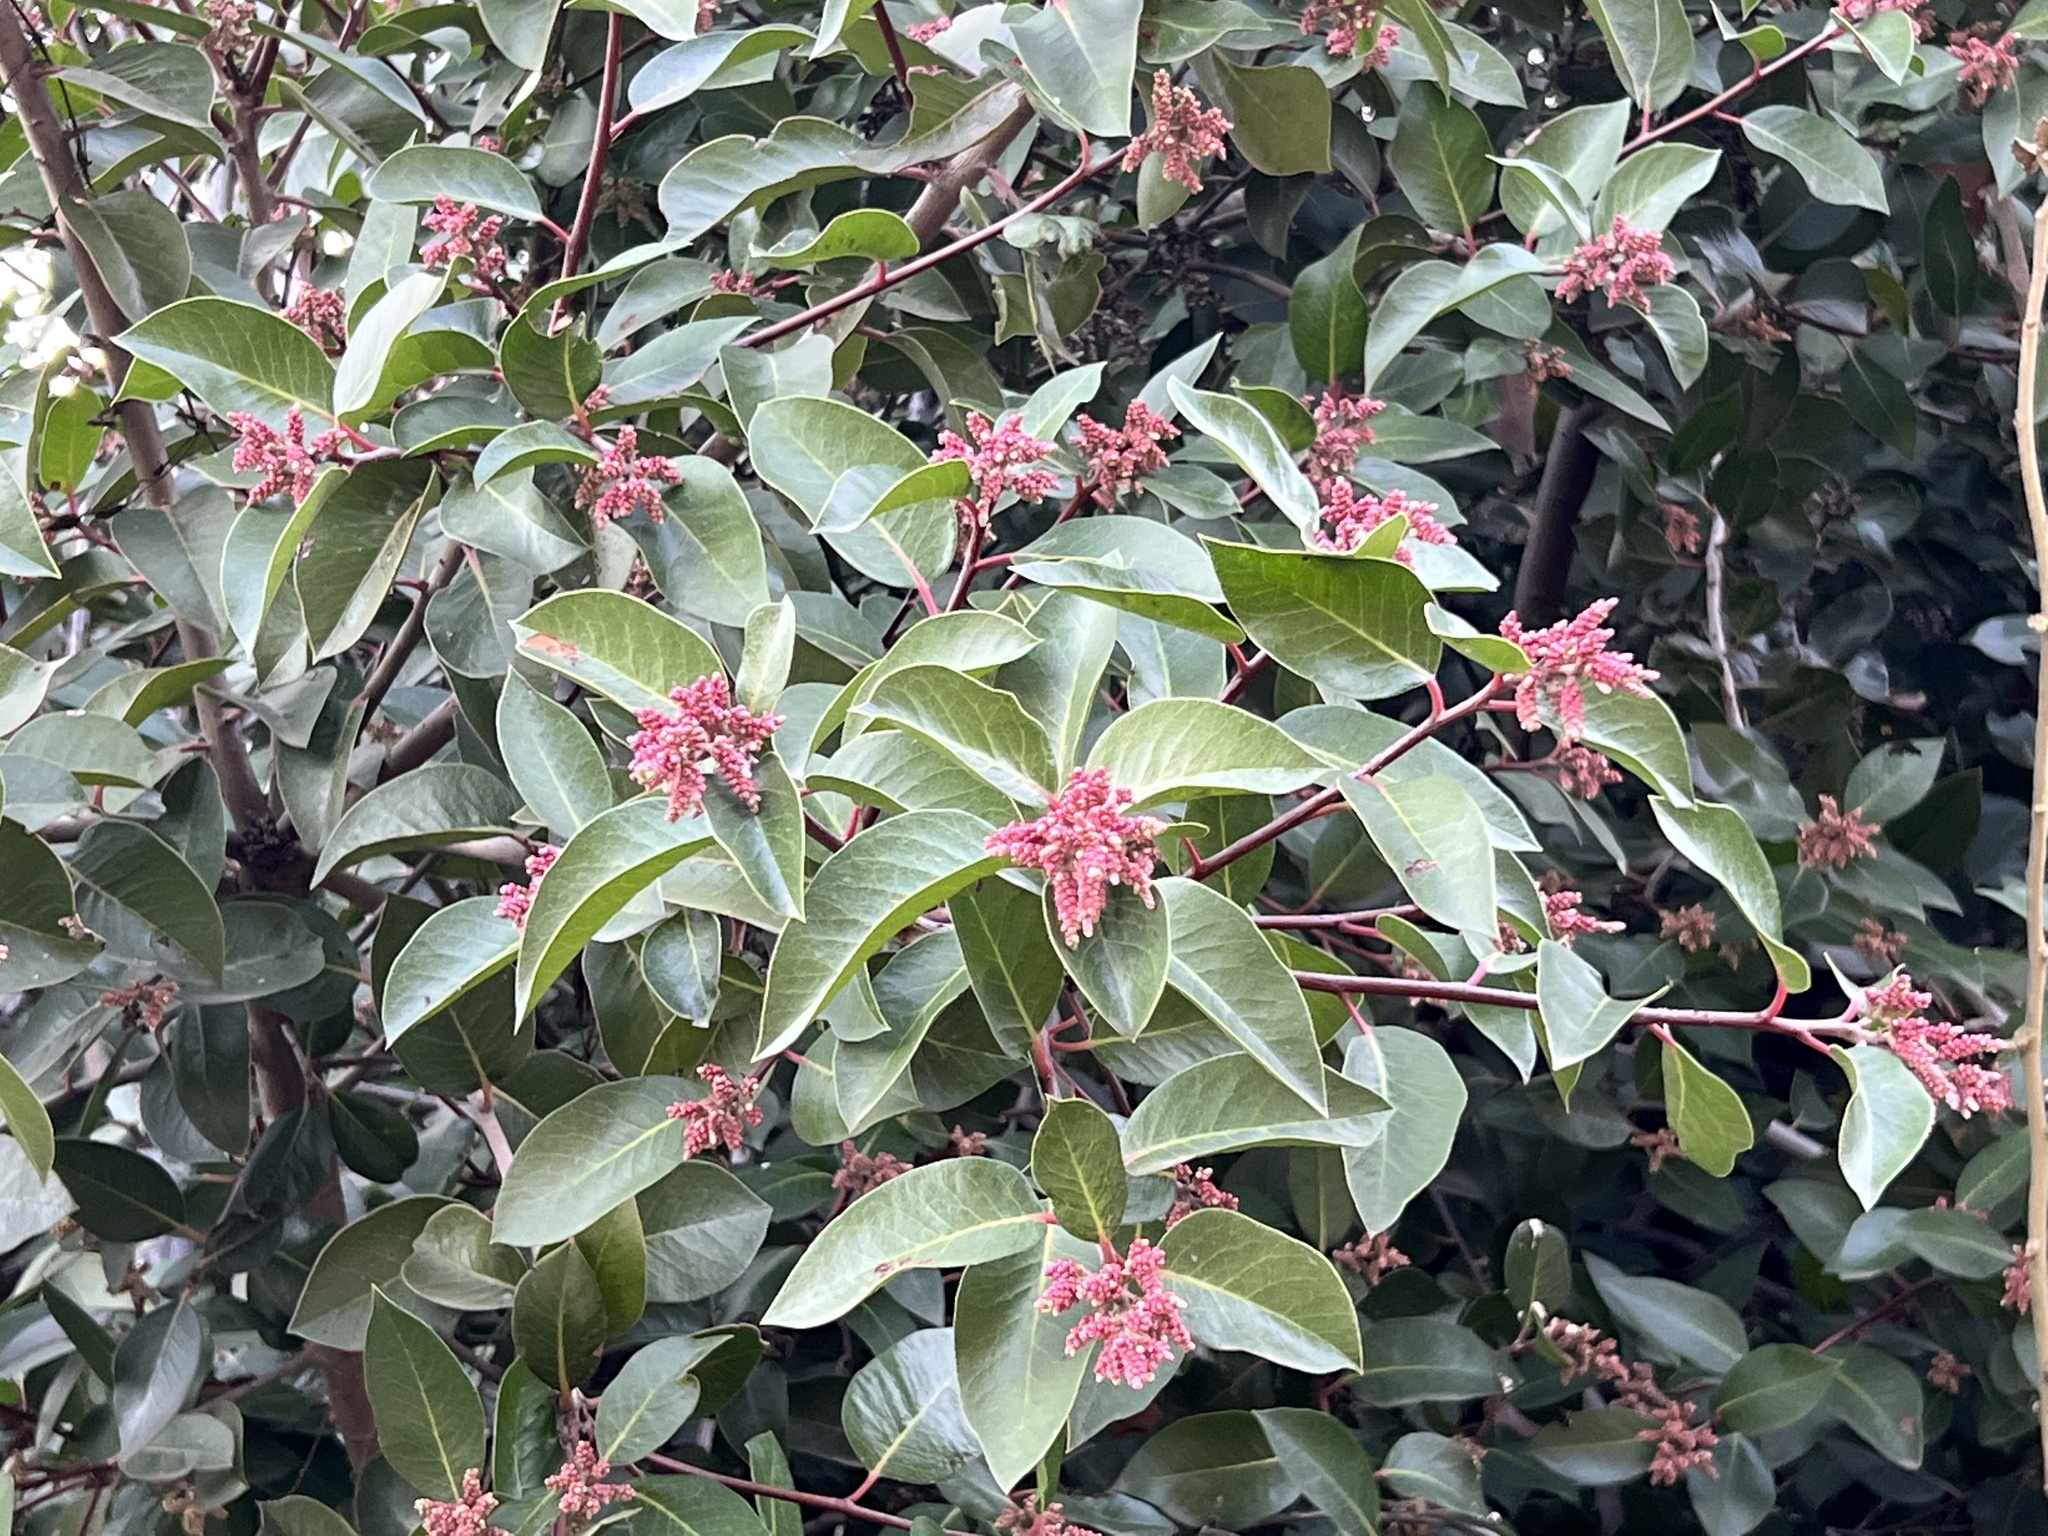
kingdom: Plantae
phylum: Tracheophyta
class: Magnoliopsida
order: Sapindales
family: Anacardiaceae
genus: Rhus
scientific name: Rhus ovata
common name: Sugar sumac
